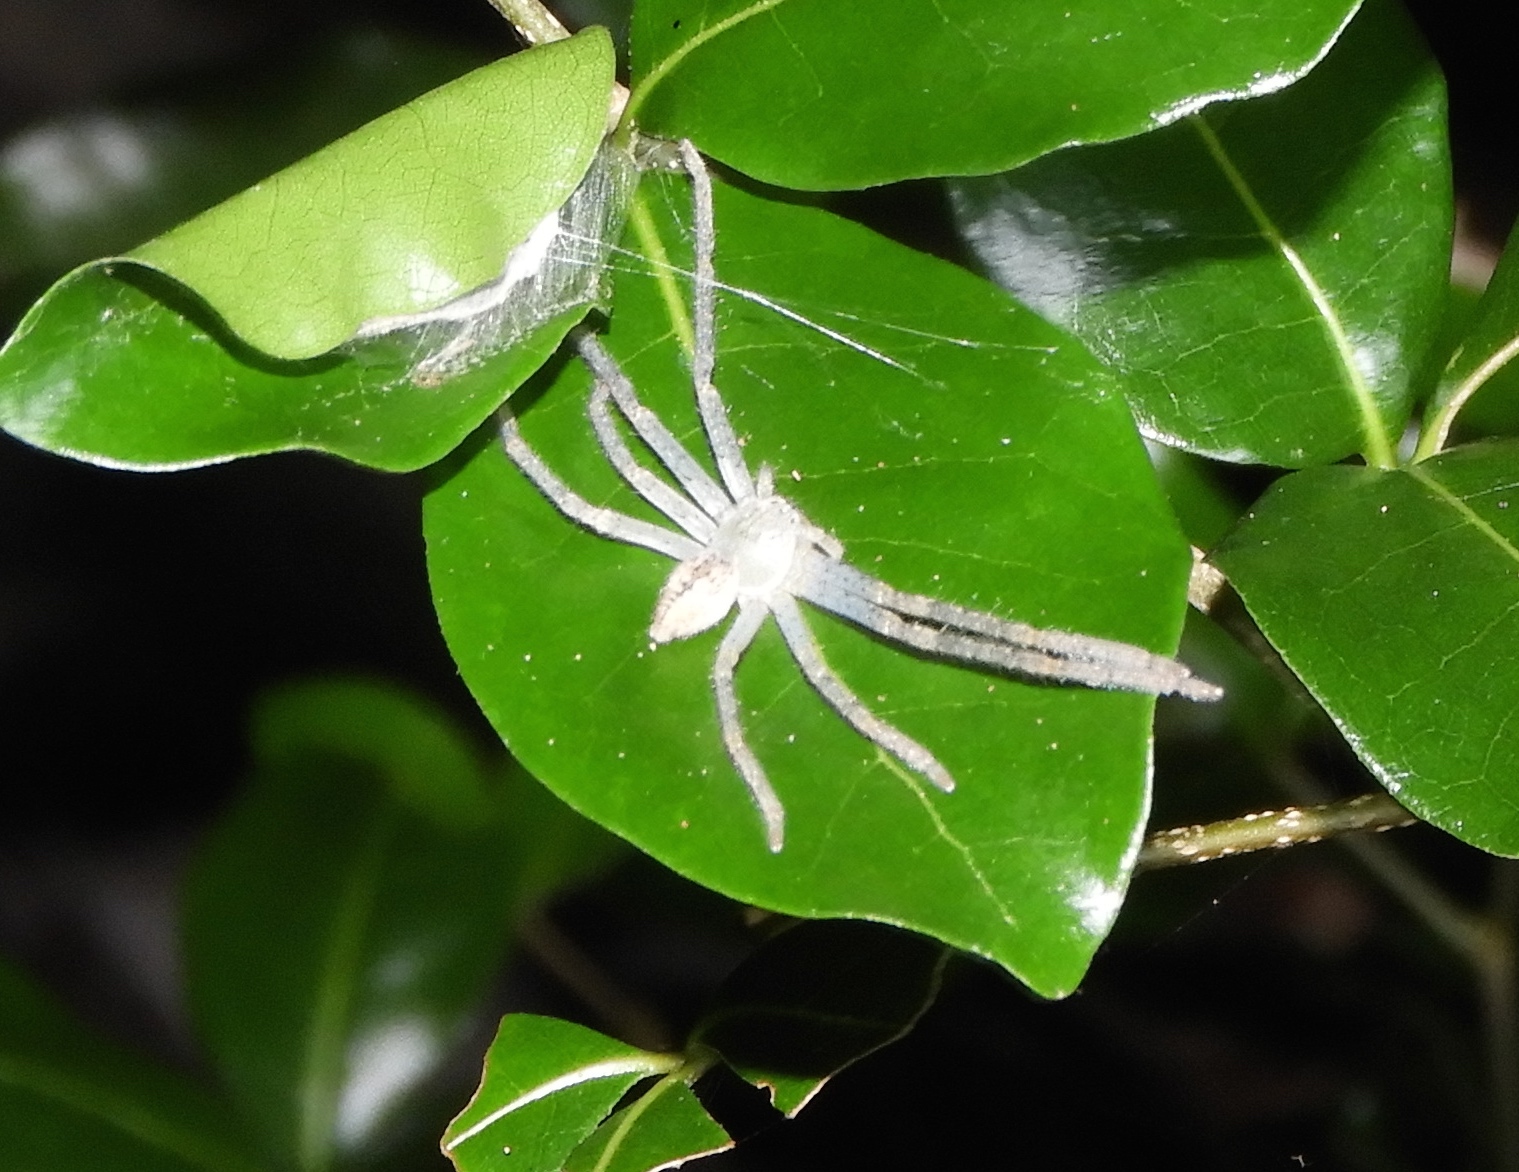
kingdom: Animalia
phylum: Arthropoda
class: Arachnida
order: Araneae
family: Sparassidae
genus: Curicaberis
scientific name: Curicaberis culiacan
